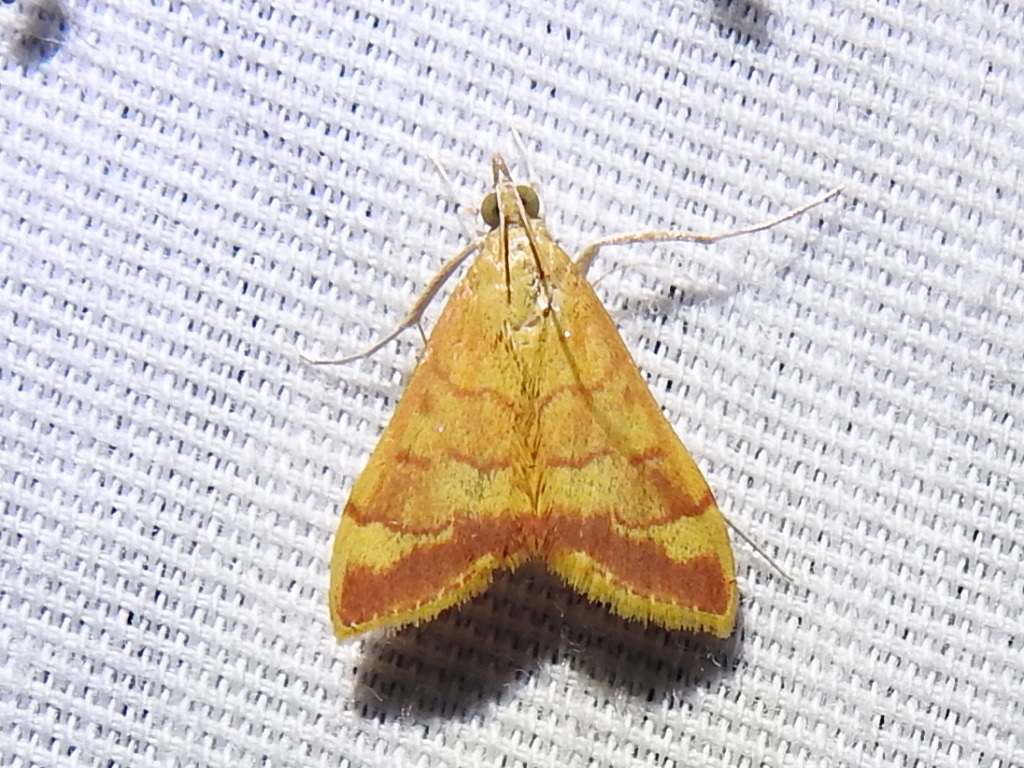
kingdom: Animalia
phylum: Arthropoda
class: Insecta
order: Lepidoptera
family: Crambidae
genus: Pyrausta
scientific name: Pyrausta pseudonythesalis
